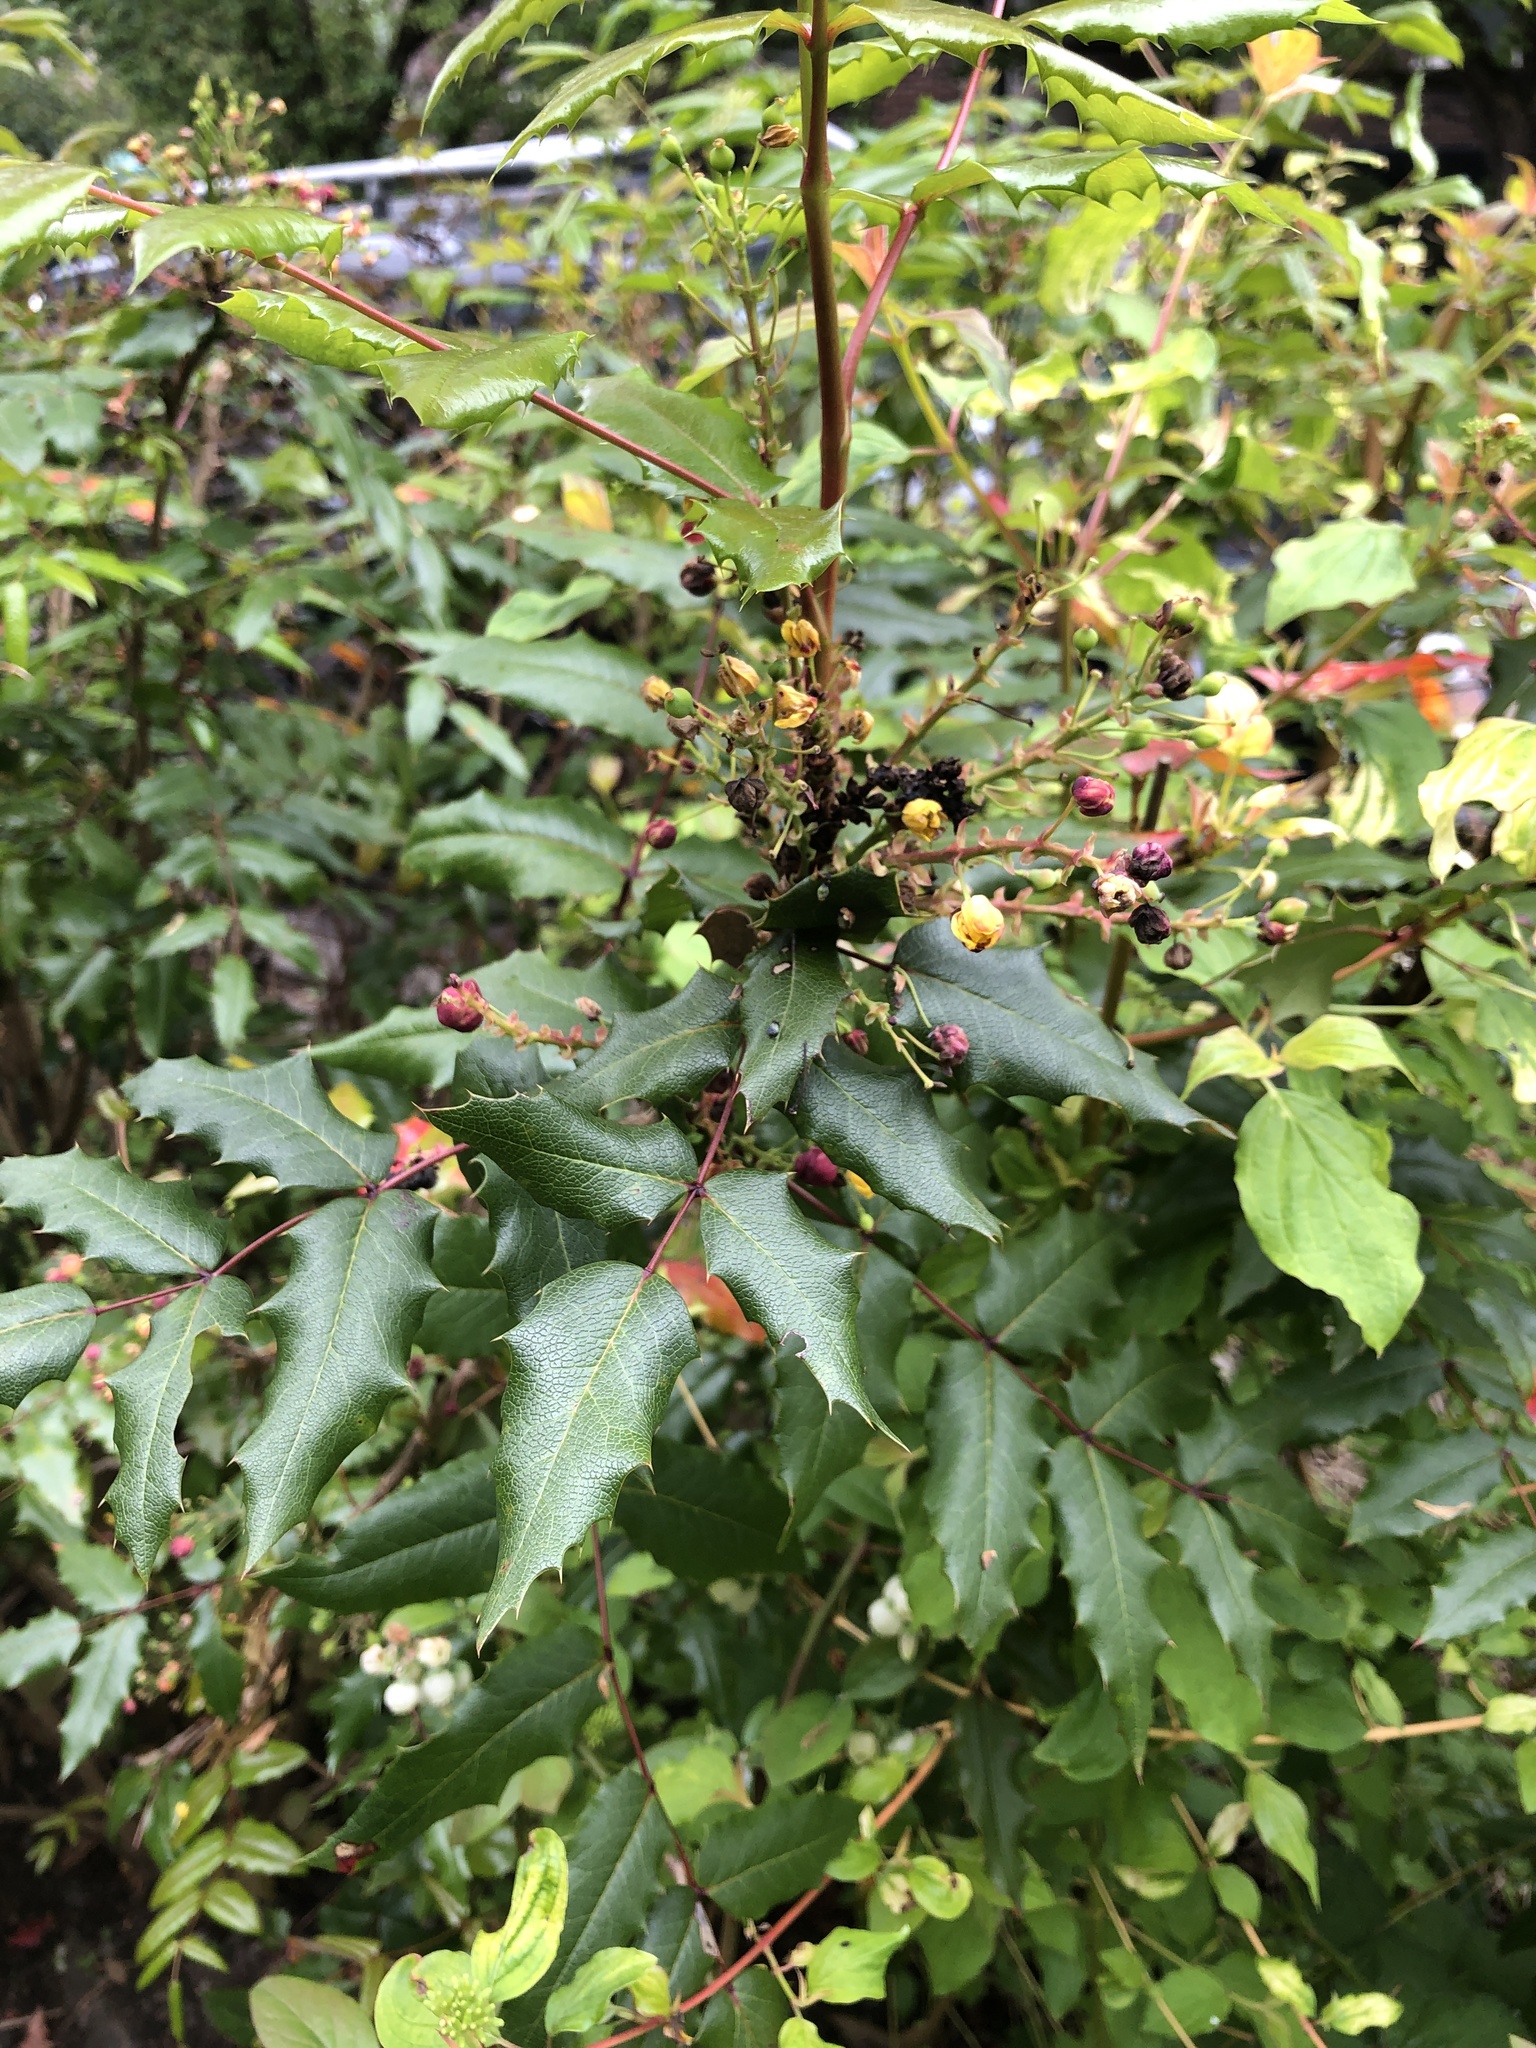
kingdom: Plantae
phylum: Tracheophyta
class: Magnoliopsida
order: Ranunculales
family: Berberidaceae
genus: Mahonia
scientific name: Mahonia aquifolium
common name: Oregon-grape
